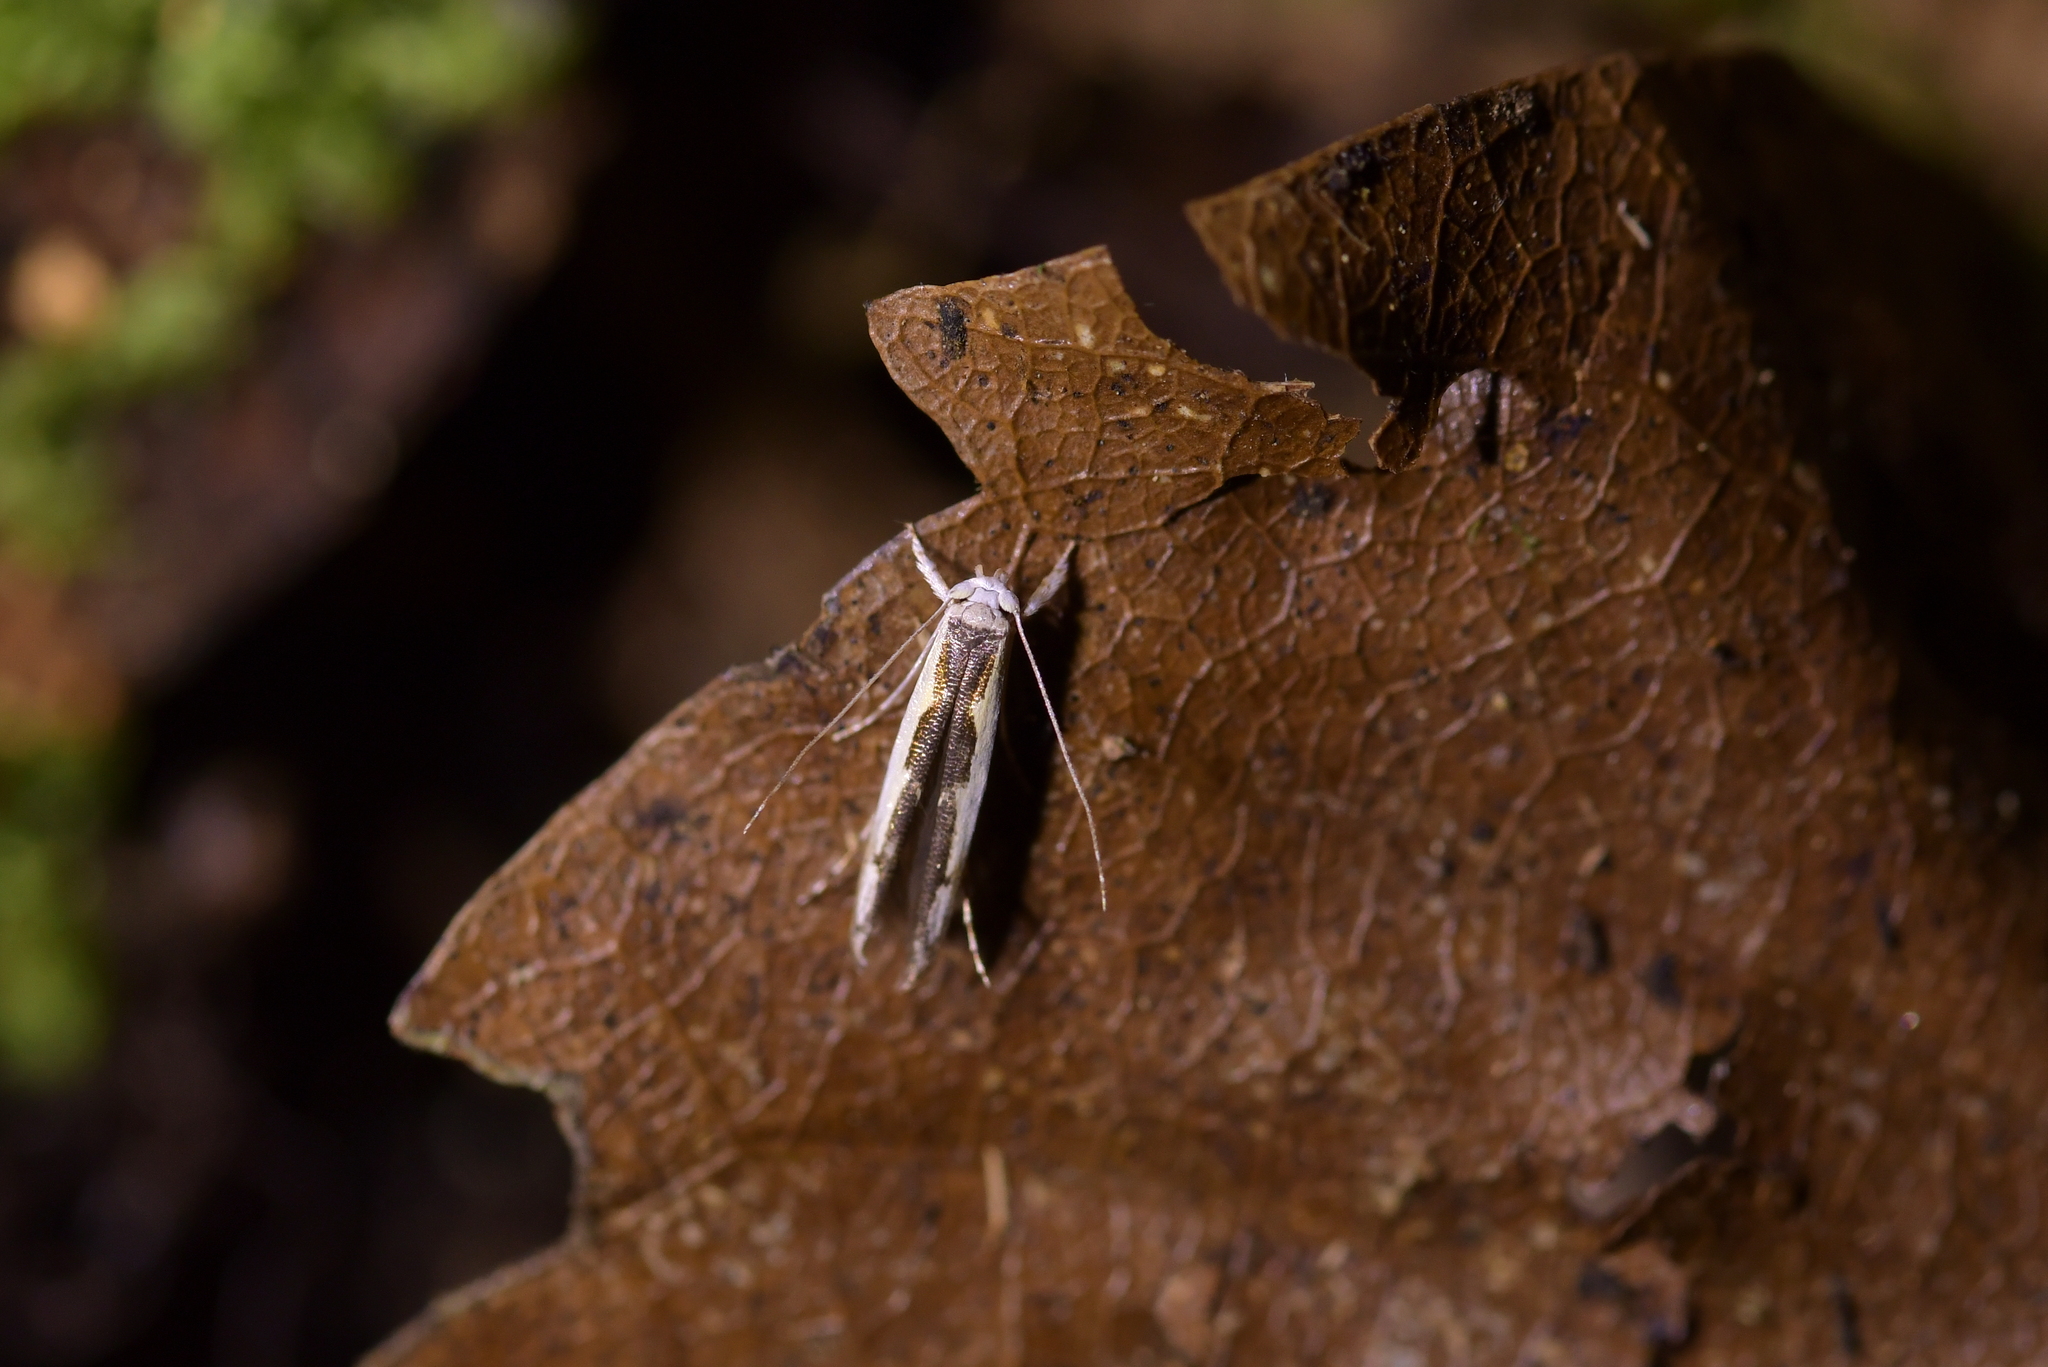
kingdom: Animalia
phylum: Arthropoda
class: Insecta
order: Lepidoptera
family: Roeslerstammiidae
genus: Vanicela
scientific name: Vanicela disjunctella
